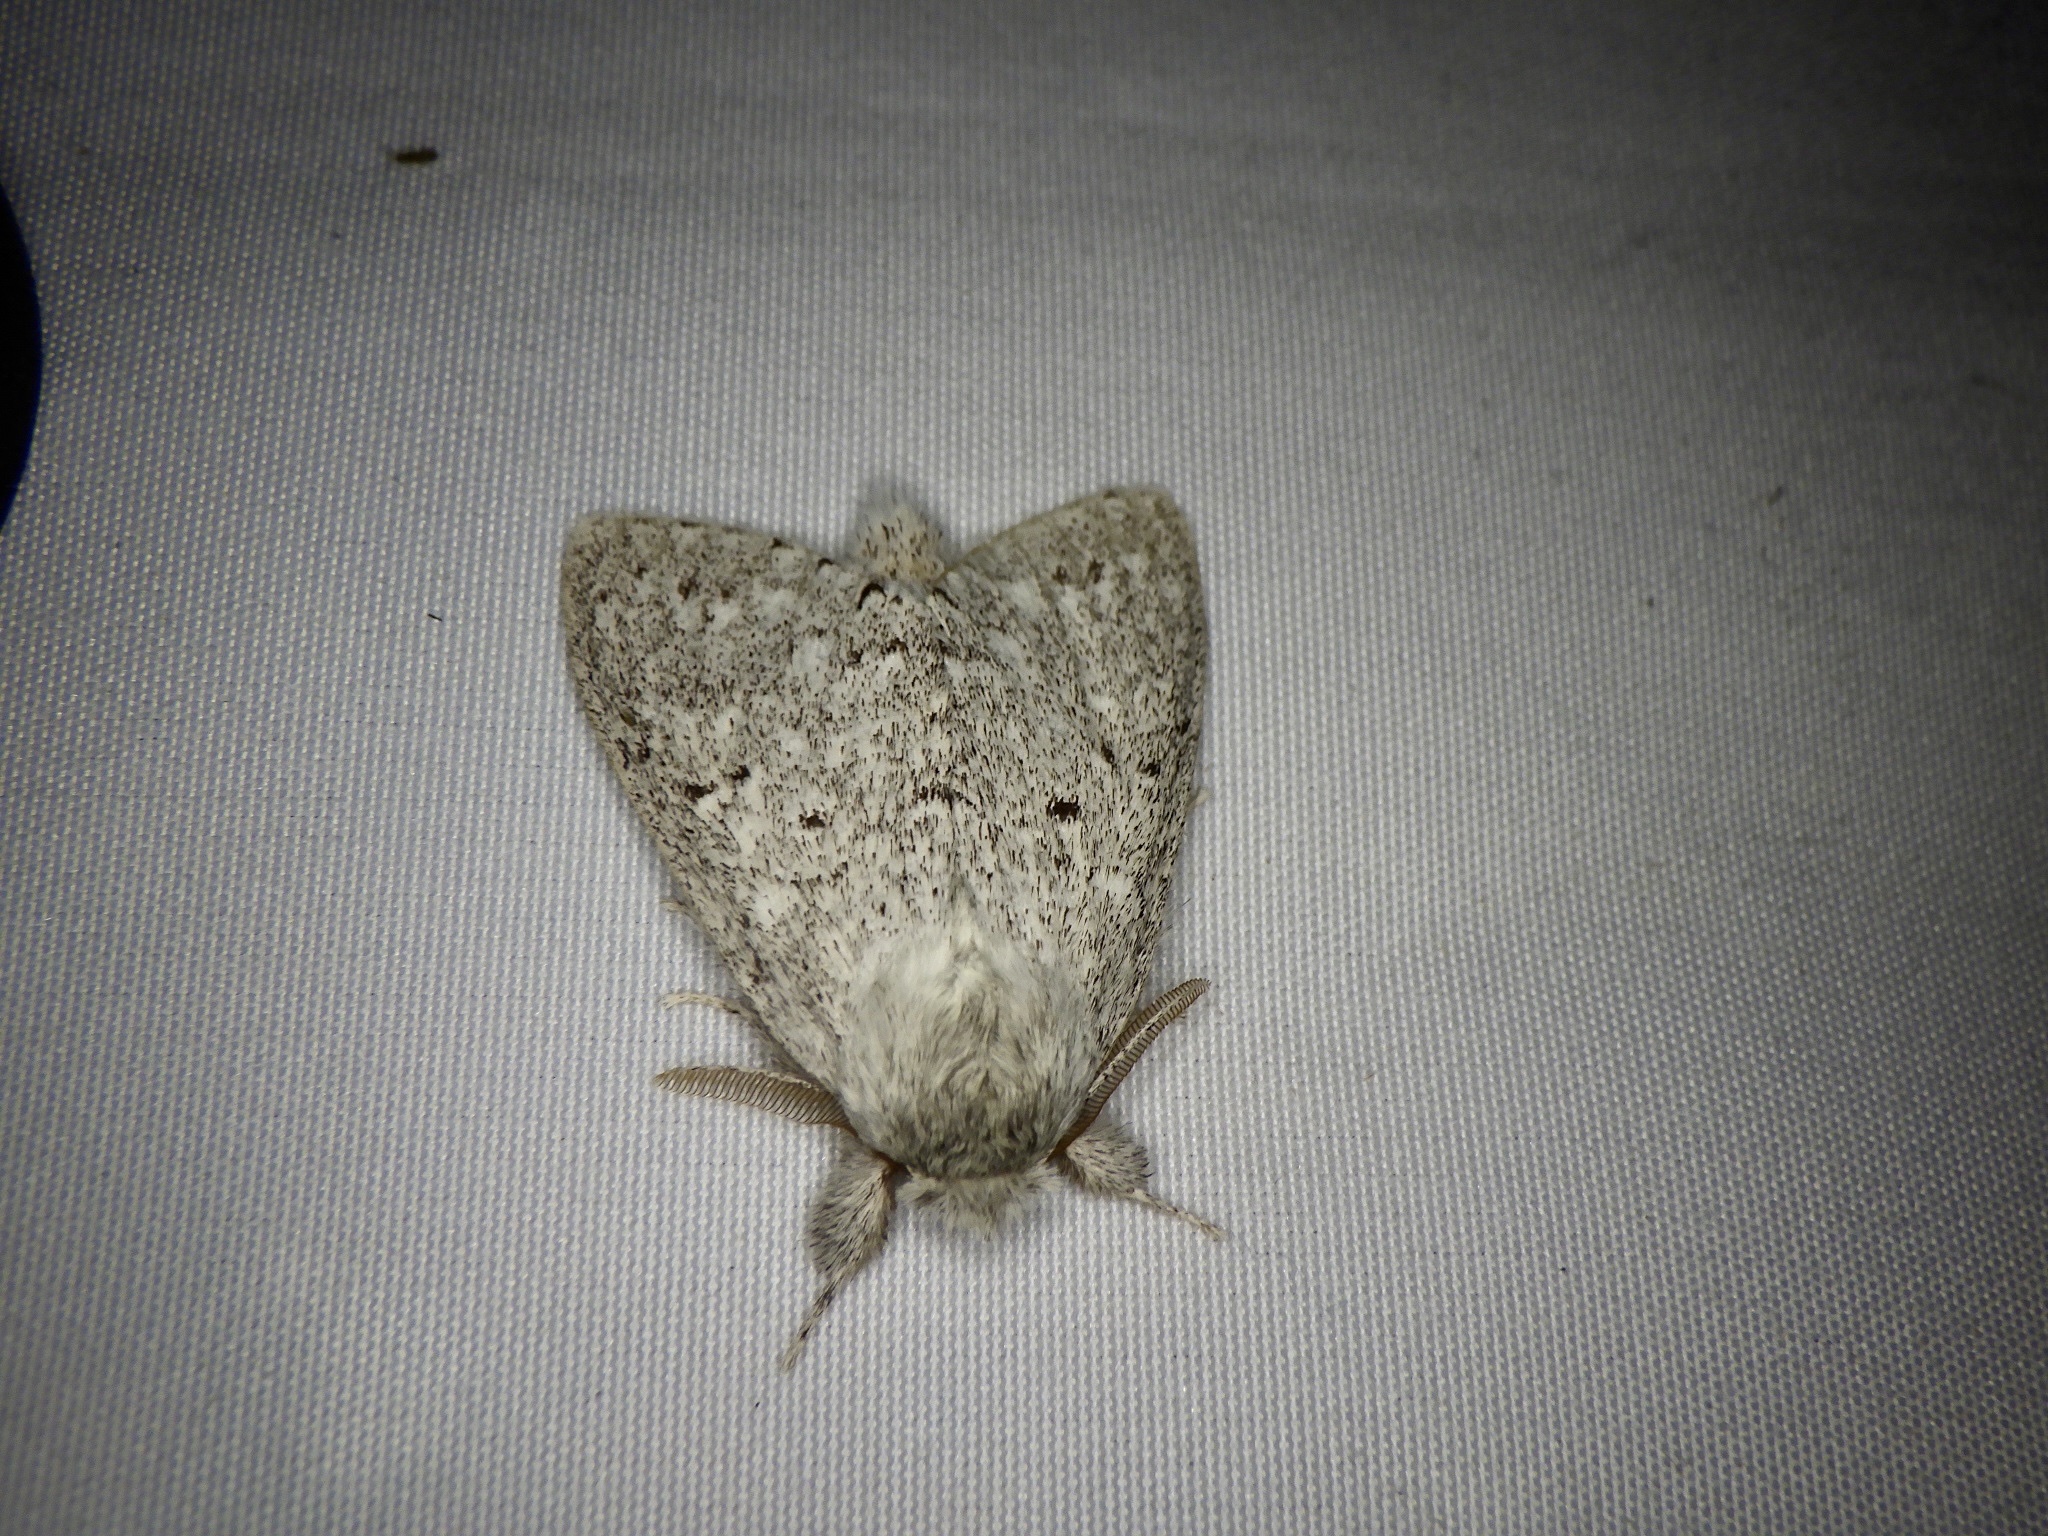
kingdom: Animalia
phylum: Arthropoda
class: Insecta
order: Lepidoptera
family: Notodontidae
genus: Cnethodonta
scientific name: Cnethodonta grisescens
